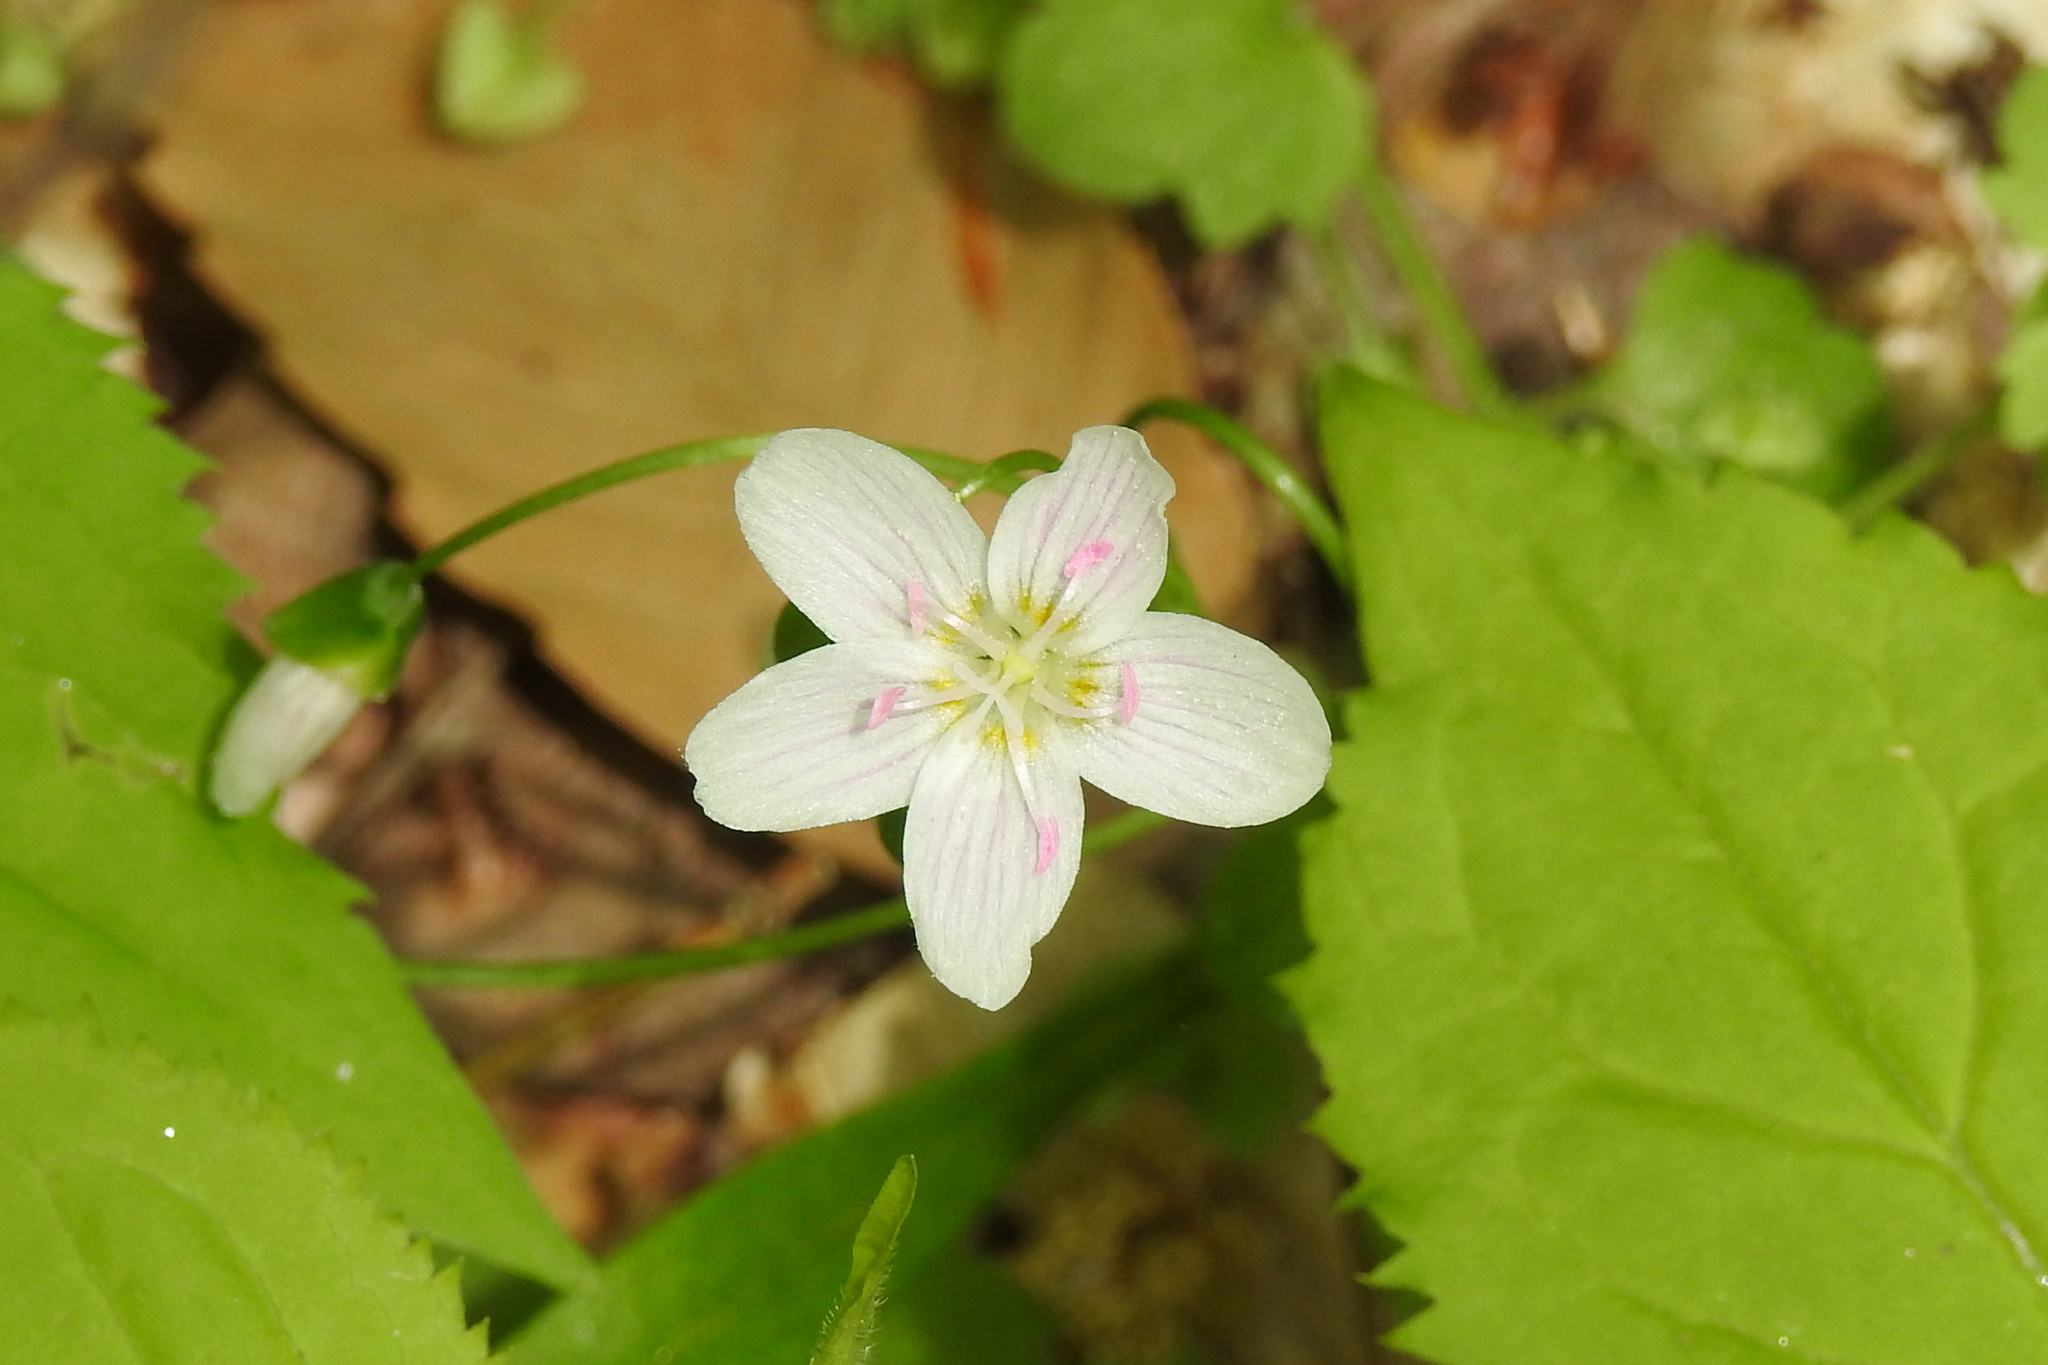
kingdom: Plantae
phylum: Tracheophyta
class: Magnoliopsida
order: Caryophyllales
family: Montiaceae
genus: Claytonia
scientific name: Claytonia virginica
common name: Virginia springbeauty
